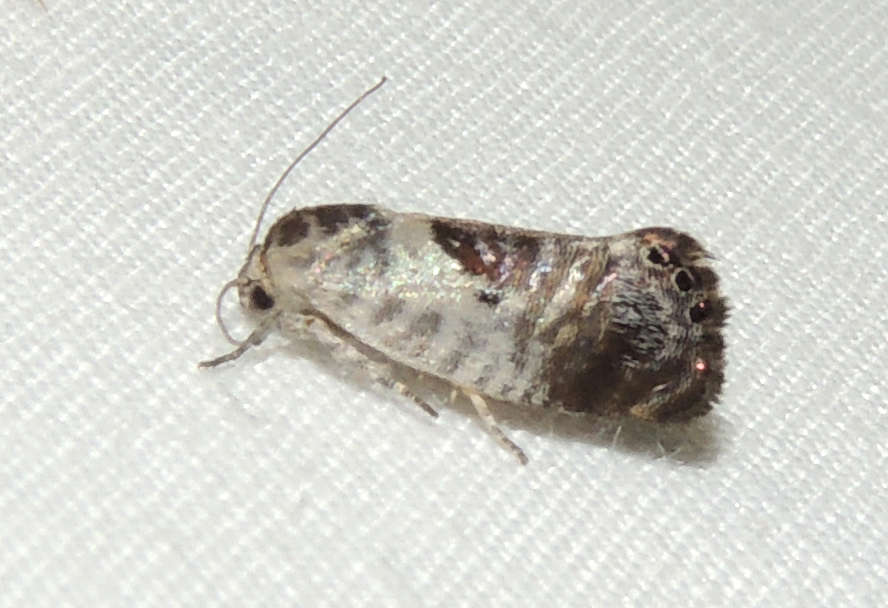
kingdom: Animalia
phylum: Arthropoda
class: Insecta
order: Lepidoptera
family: Depressariidae
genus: Eupselia
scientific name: Eupselia carpocapsella
